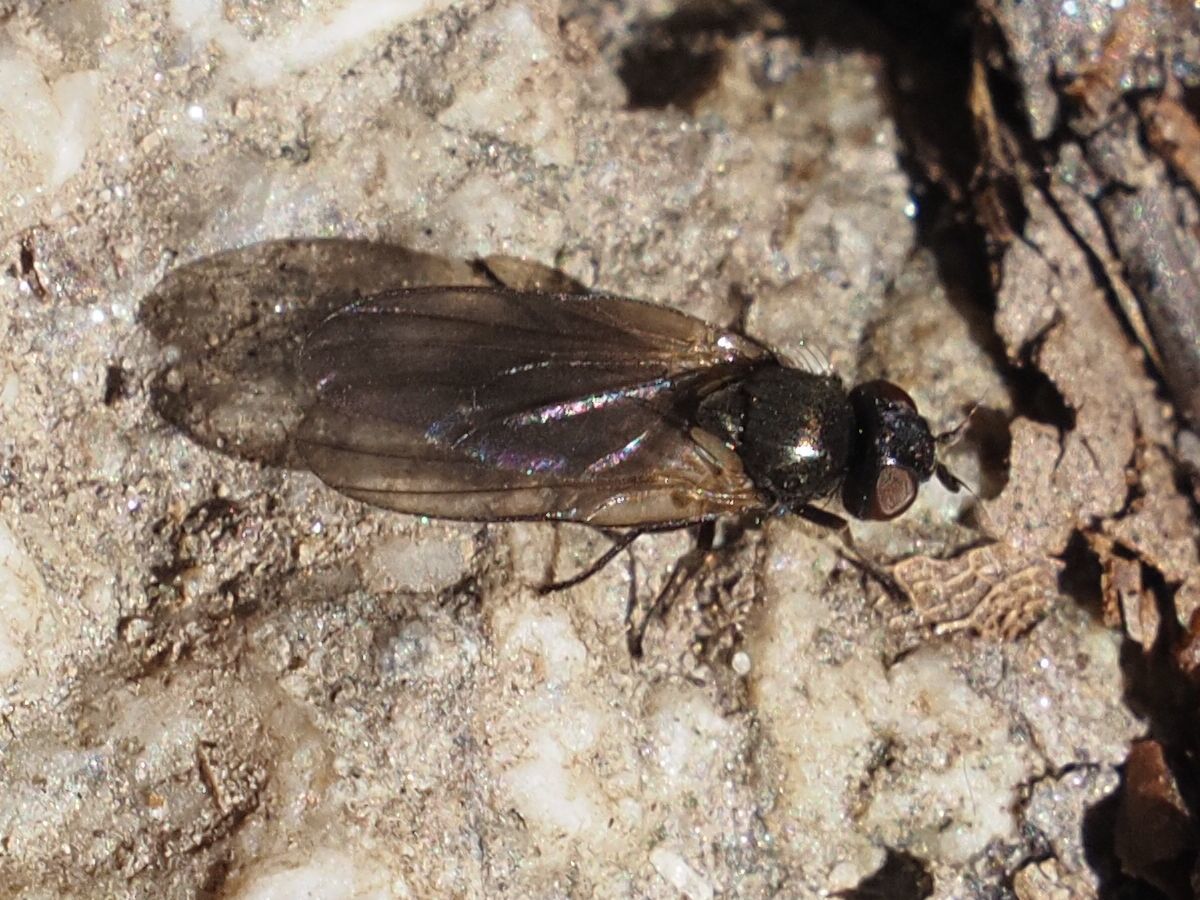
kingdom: Animalia
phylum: Arthropoda
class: Insecta
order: Diptera
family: Lonchaeidae
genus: Earomyia
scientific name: Earomyia lonchaeoides
